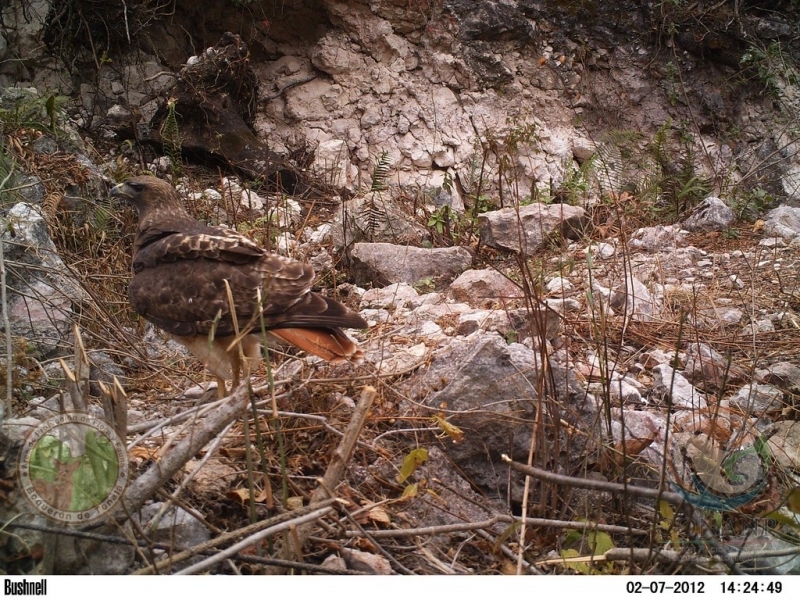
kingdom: Animalia
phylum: Chordata
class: Aves
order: Accipitriformes
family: Accipitridae
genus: Buteo
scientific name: Buteo jamaicensis
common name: Red-tailed hawk
